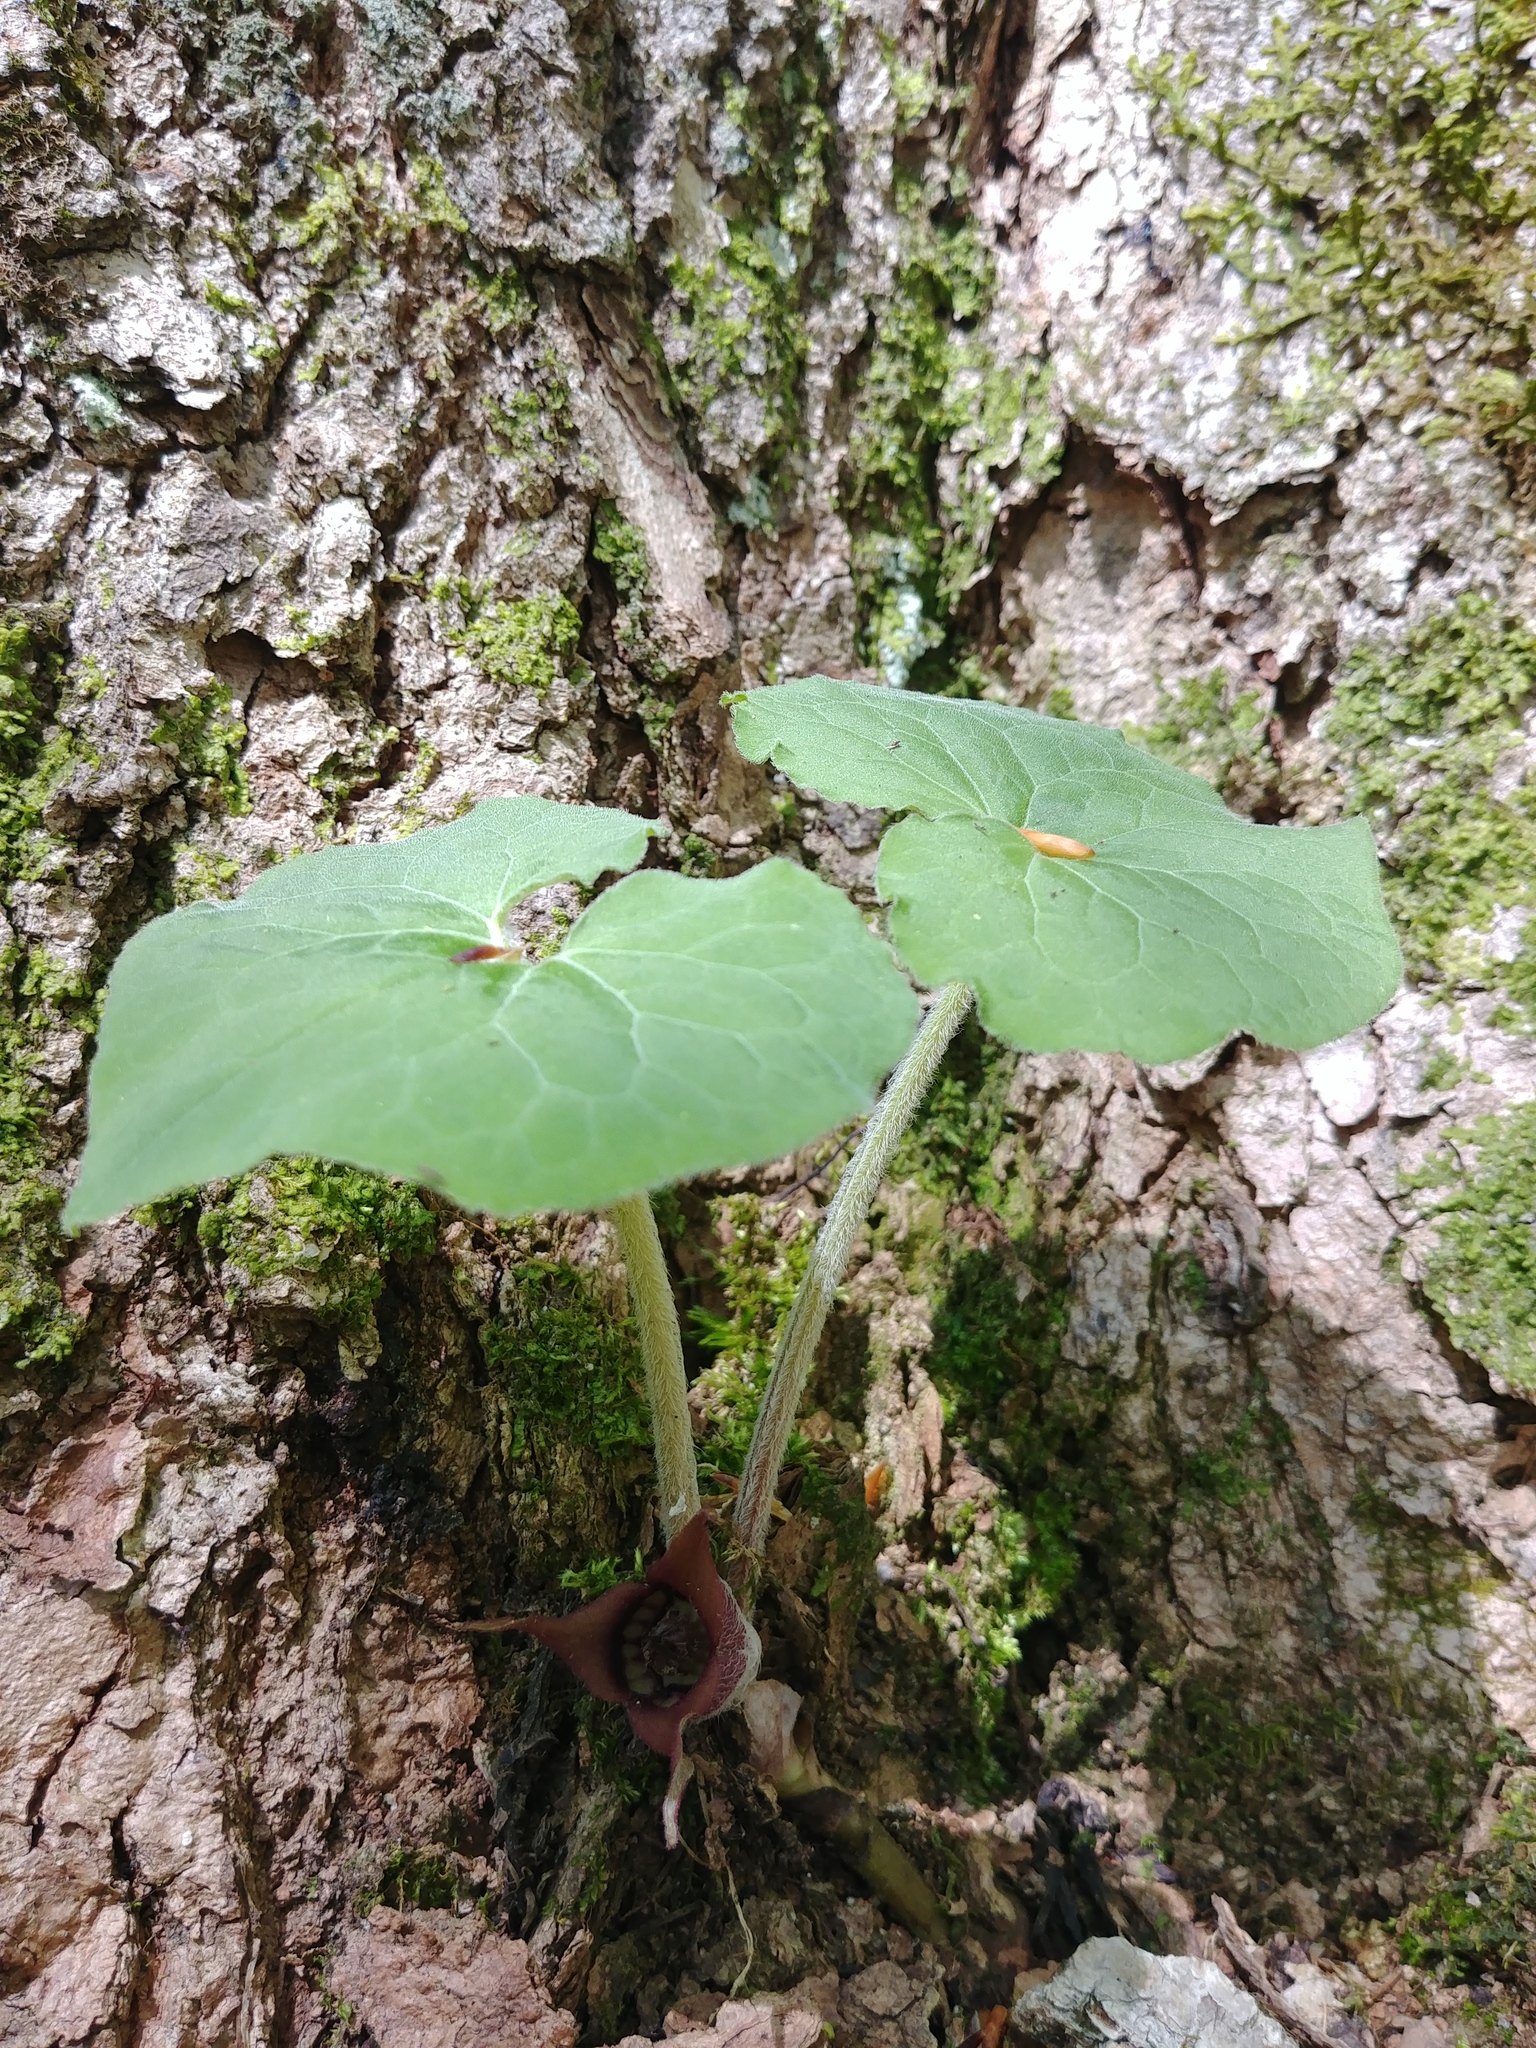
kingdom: Plantae
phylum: Tracheophyta
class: Magnoliopsida
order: Piperales
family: Aristolochiaceae
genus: Asarum
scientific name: Asarum canadense
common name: Wild ginger
